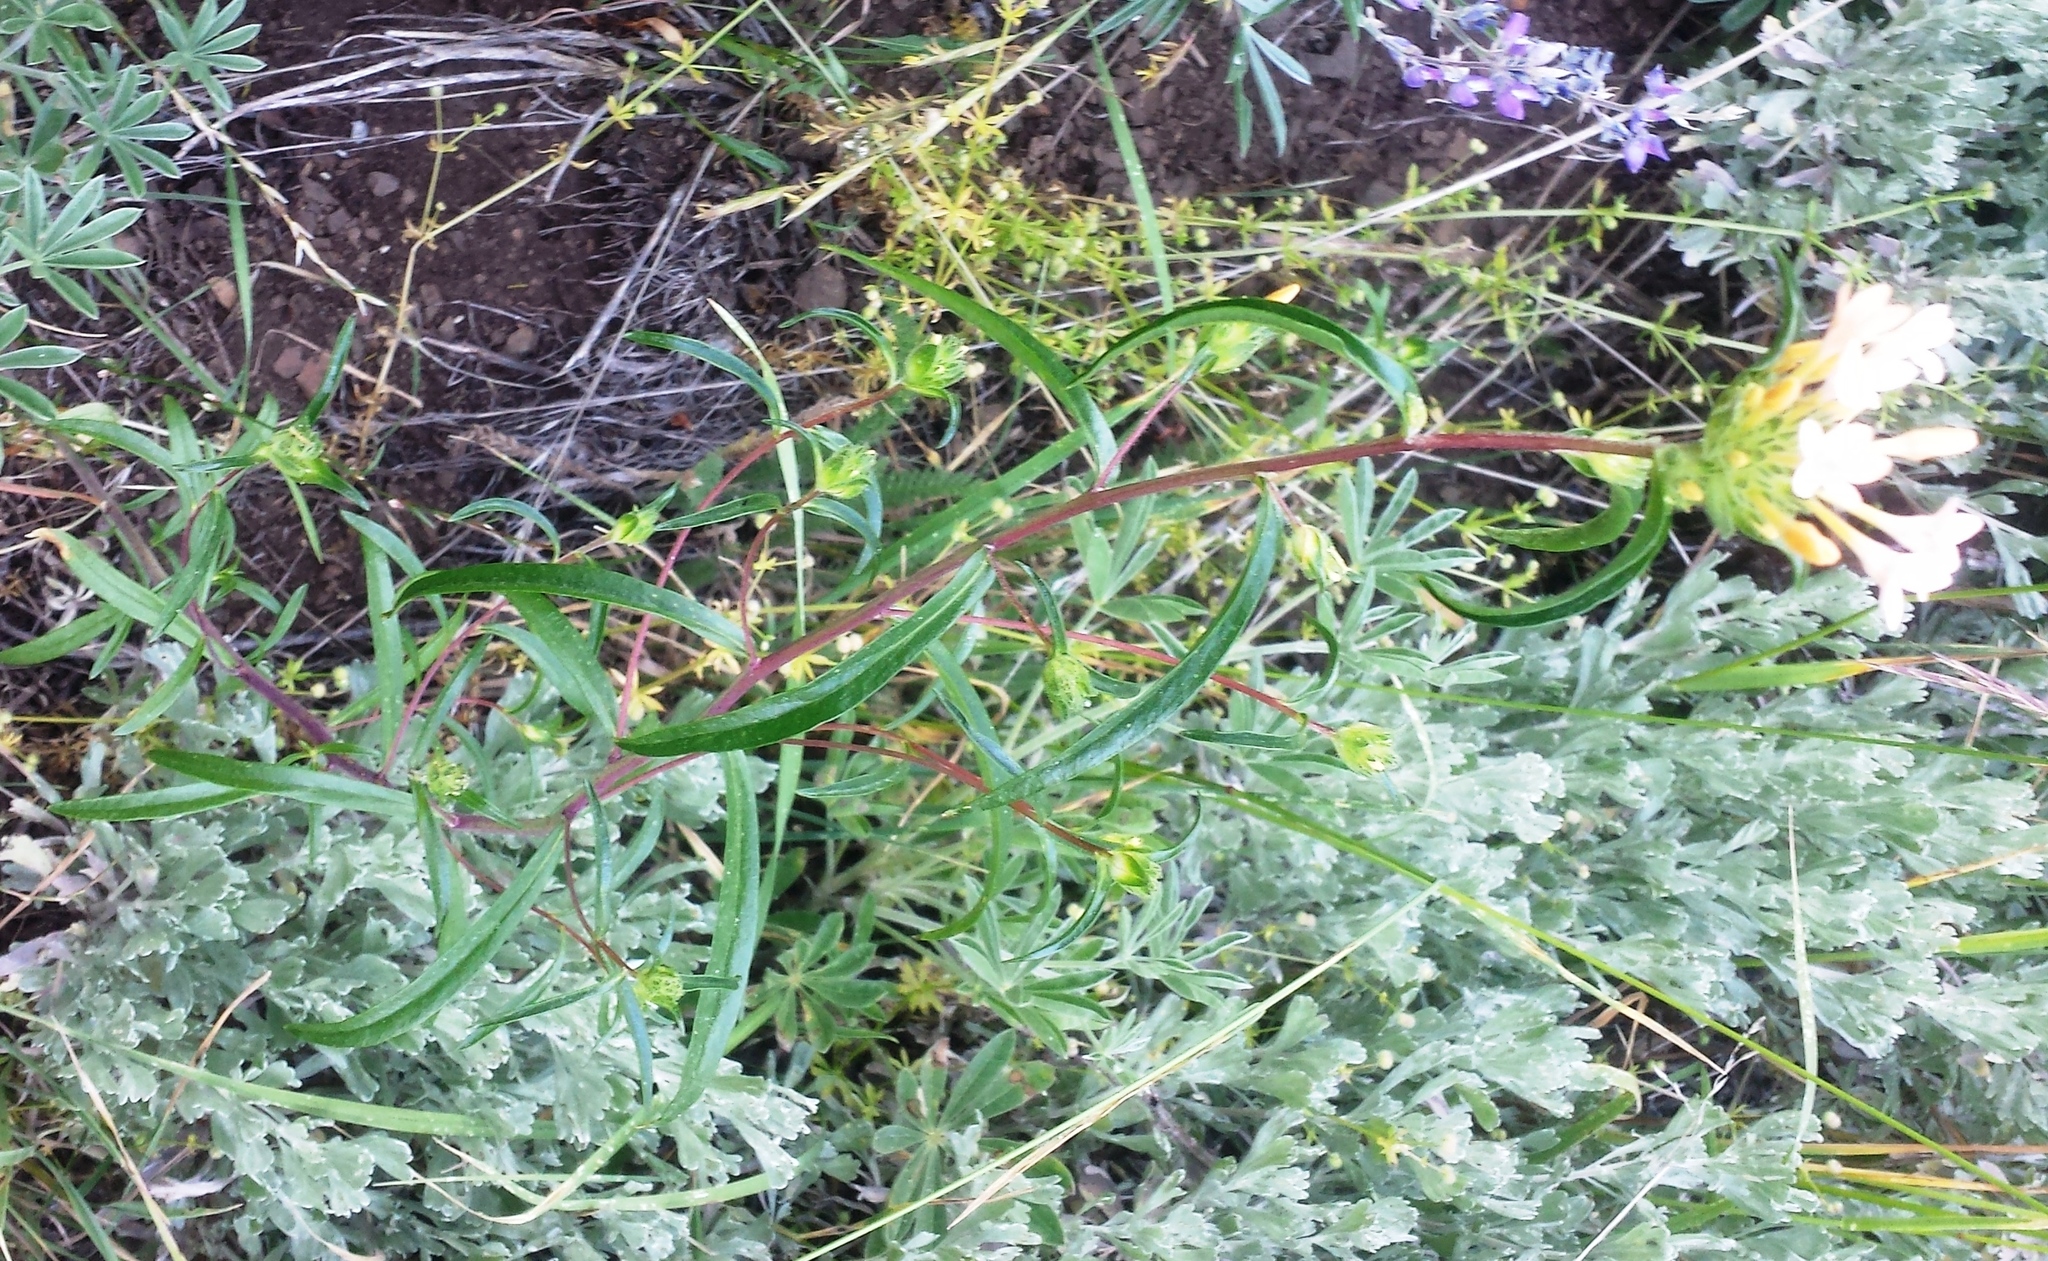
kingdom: Plantae
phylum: Tracheophyta
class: Magnoliopsida
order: Ericales
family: Polemoniaceae
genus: Collomia
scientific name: Collomia grandiflora
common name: California strawflower
